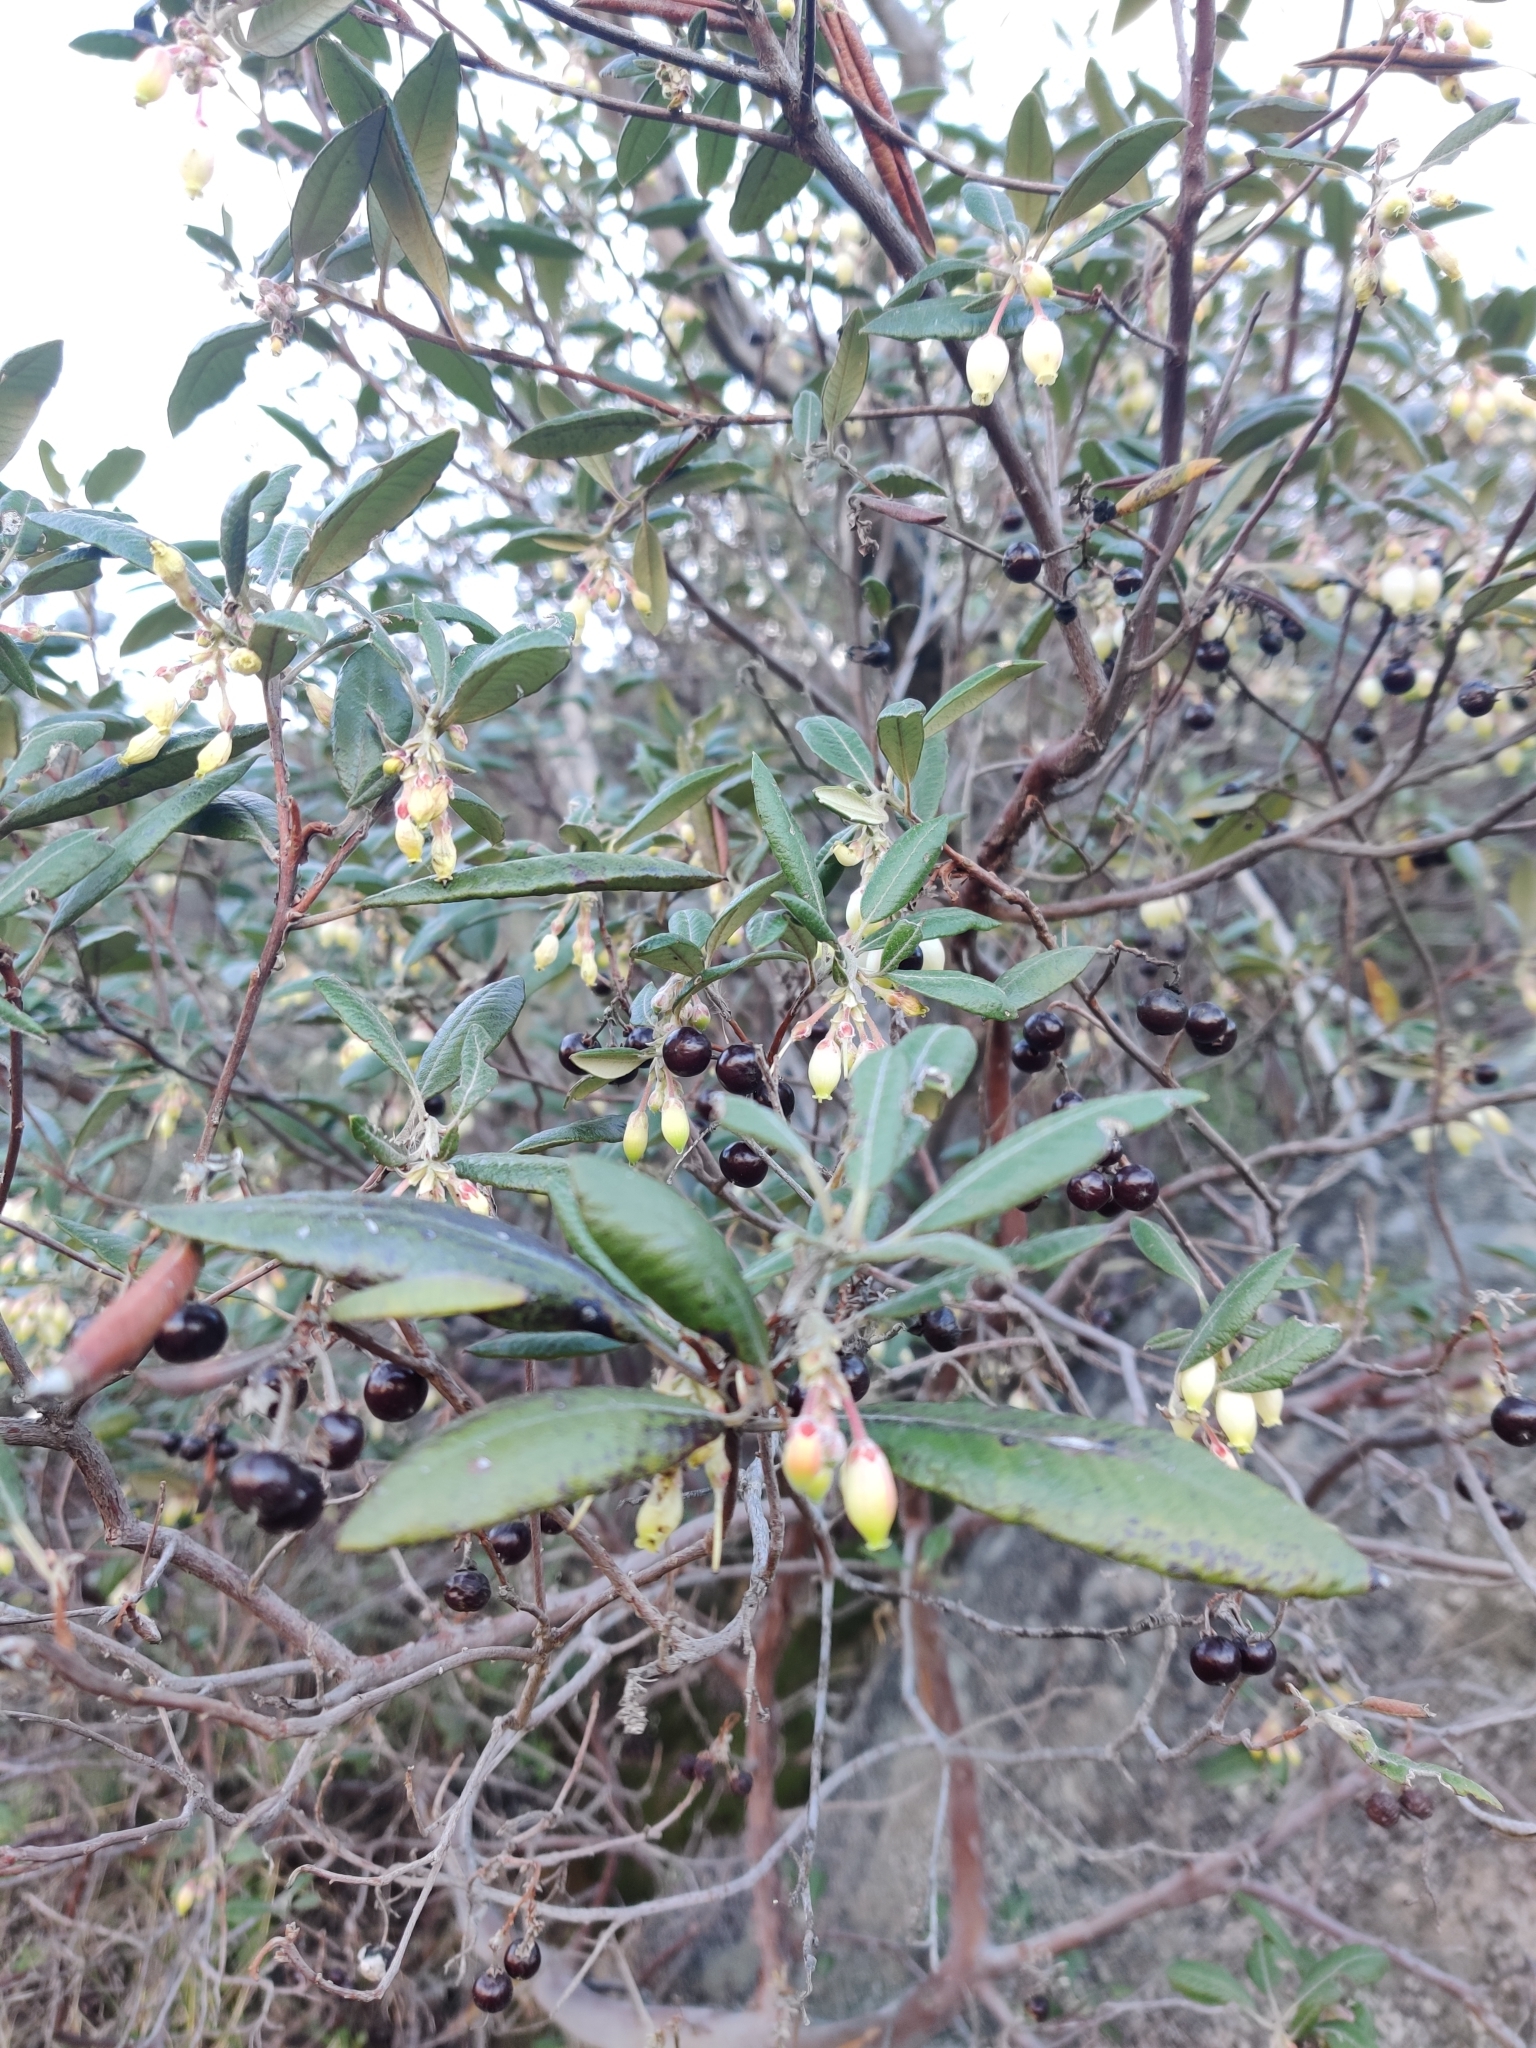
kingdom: Plantae
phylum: Tracheophyta
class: Magnoliopsida
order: Ericales
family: Ericaceae
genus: Arctostaphylos
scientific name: Arctostaphylos bicolor
